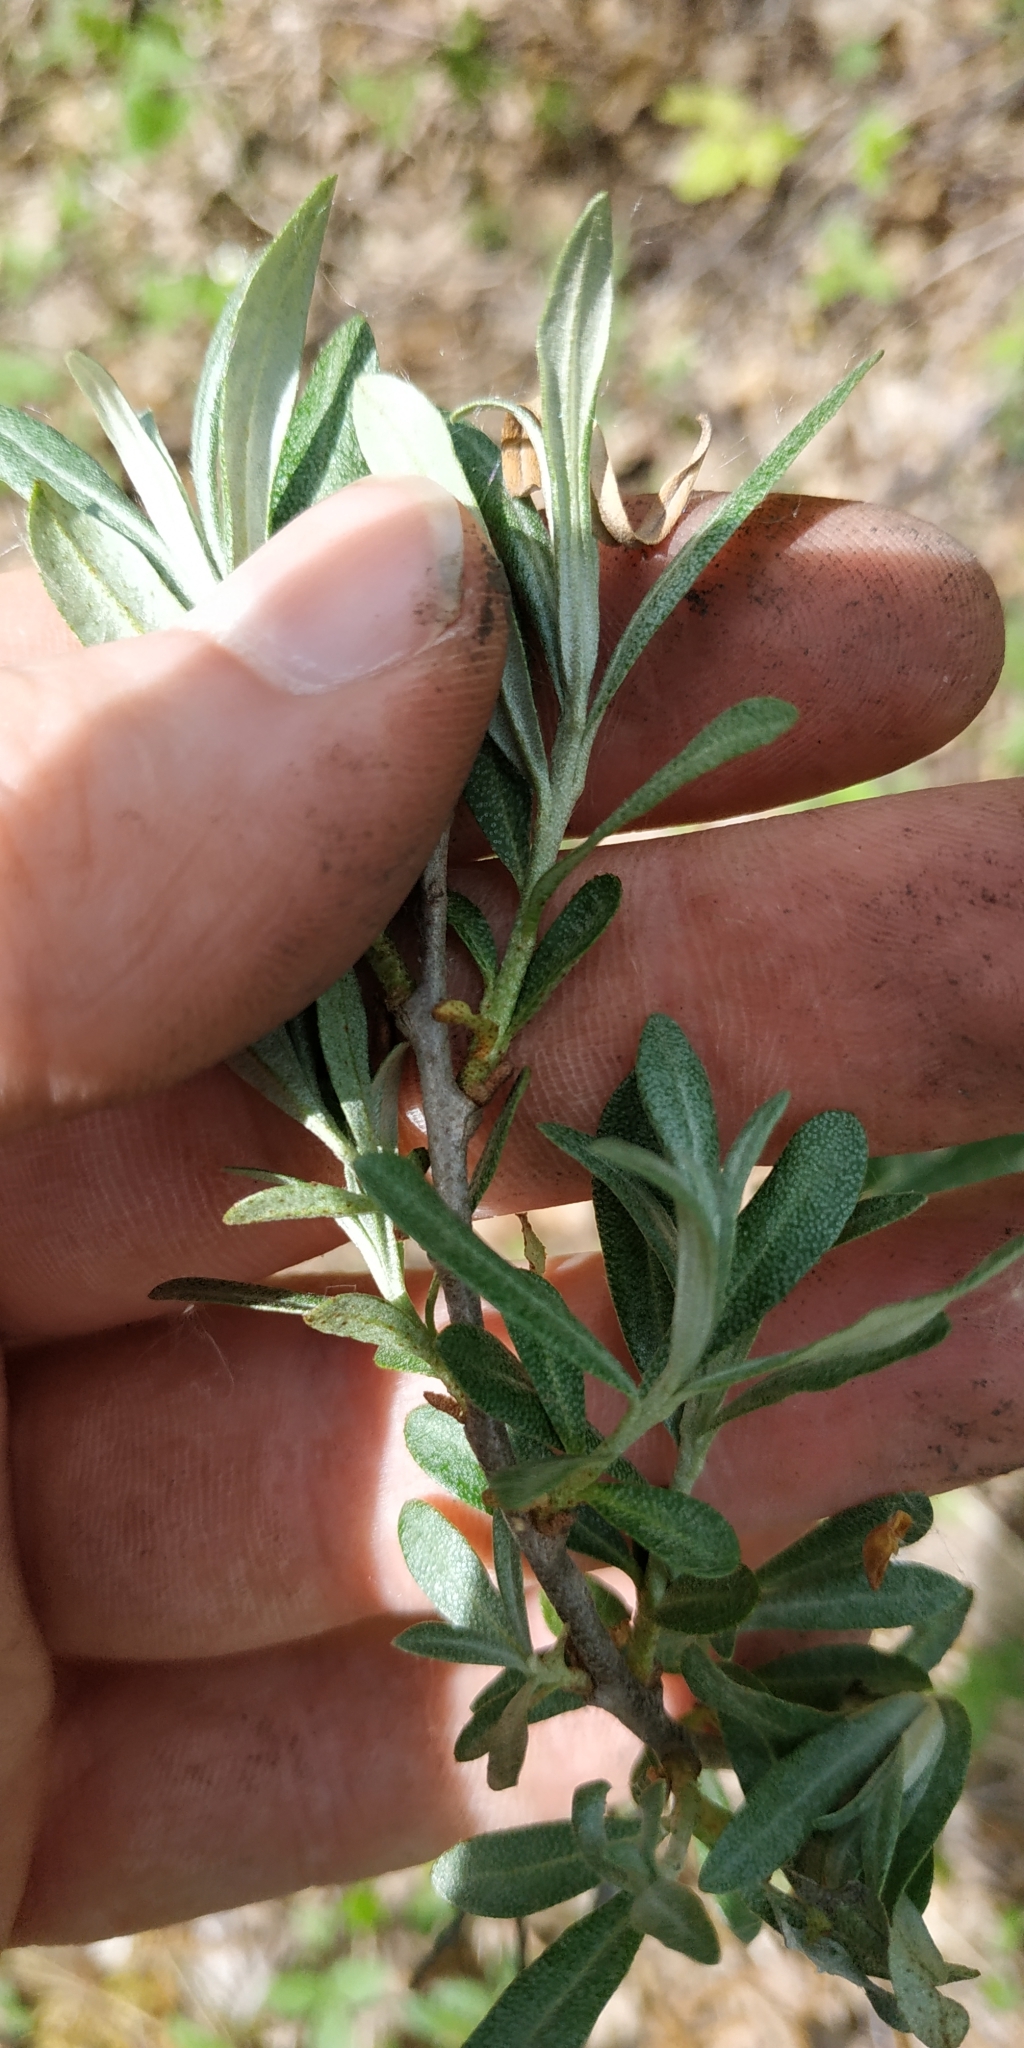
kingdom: Plantae
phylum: Tracheophyta
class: Magnoliopsida
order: Rosales
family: Elaeagnaceae
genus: Hippophae
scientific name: Hippophae rhamnoides
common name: Sea-buckthorn
